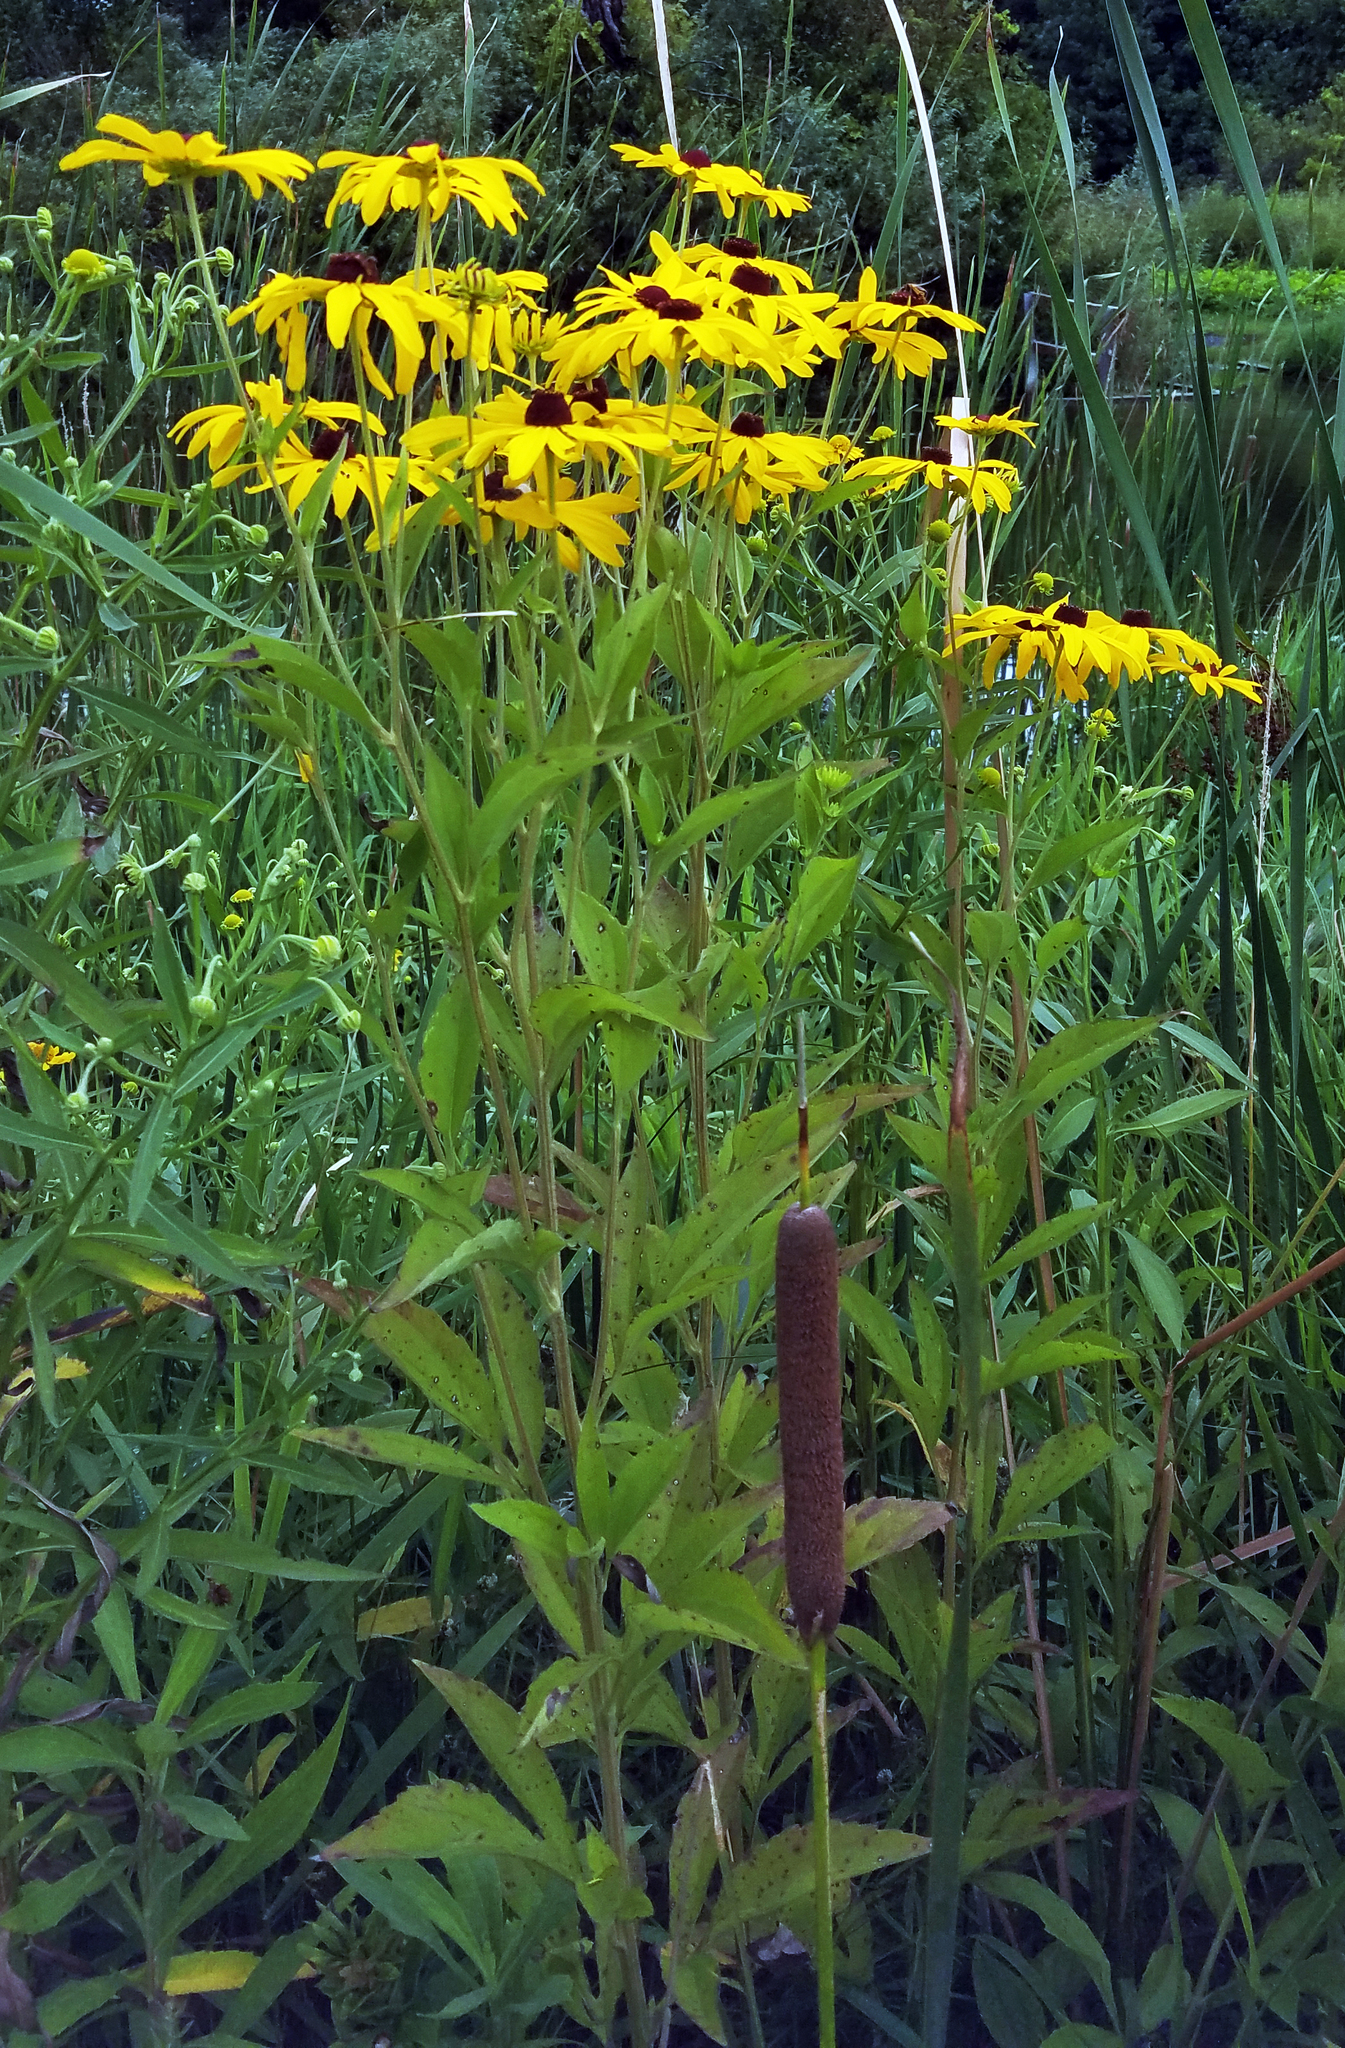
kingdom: Plantae
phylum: Tracheophyta
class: Magnoliopsida
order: Asterales
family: Asteraceae
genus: Rudbeckia
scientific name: Rudbeckia subtomentosa
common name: Sweet coneflower
